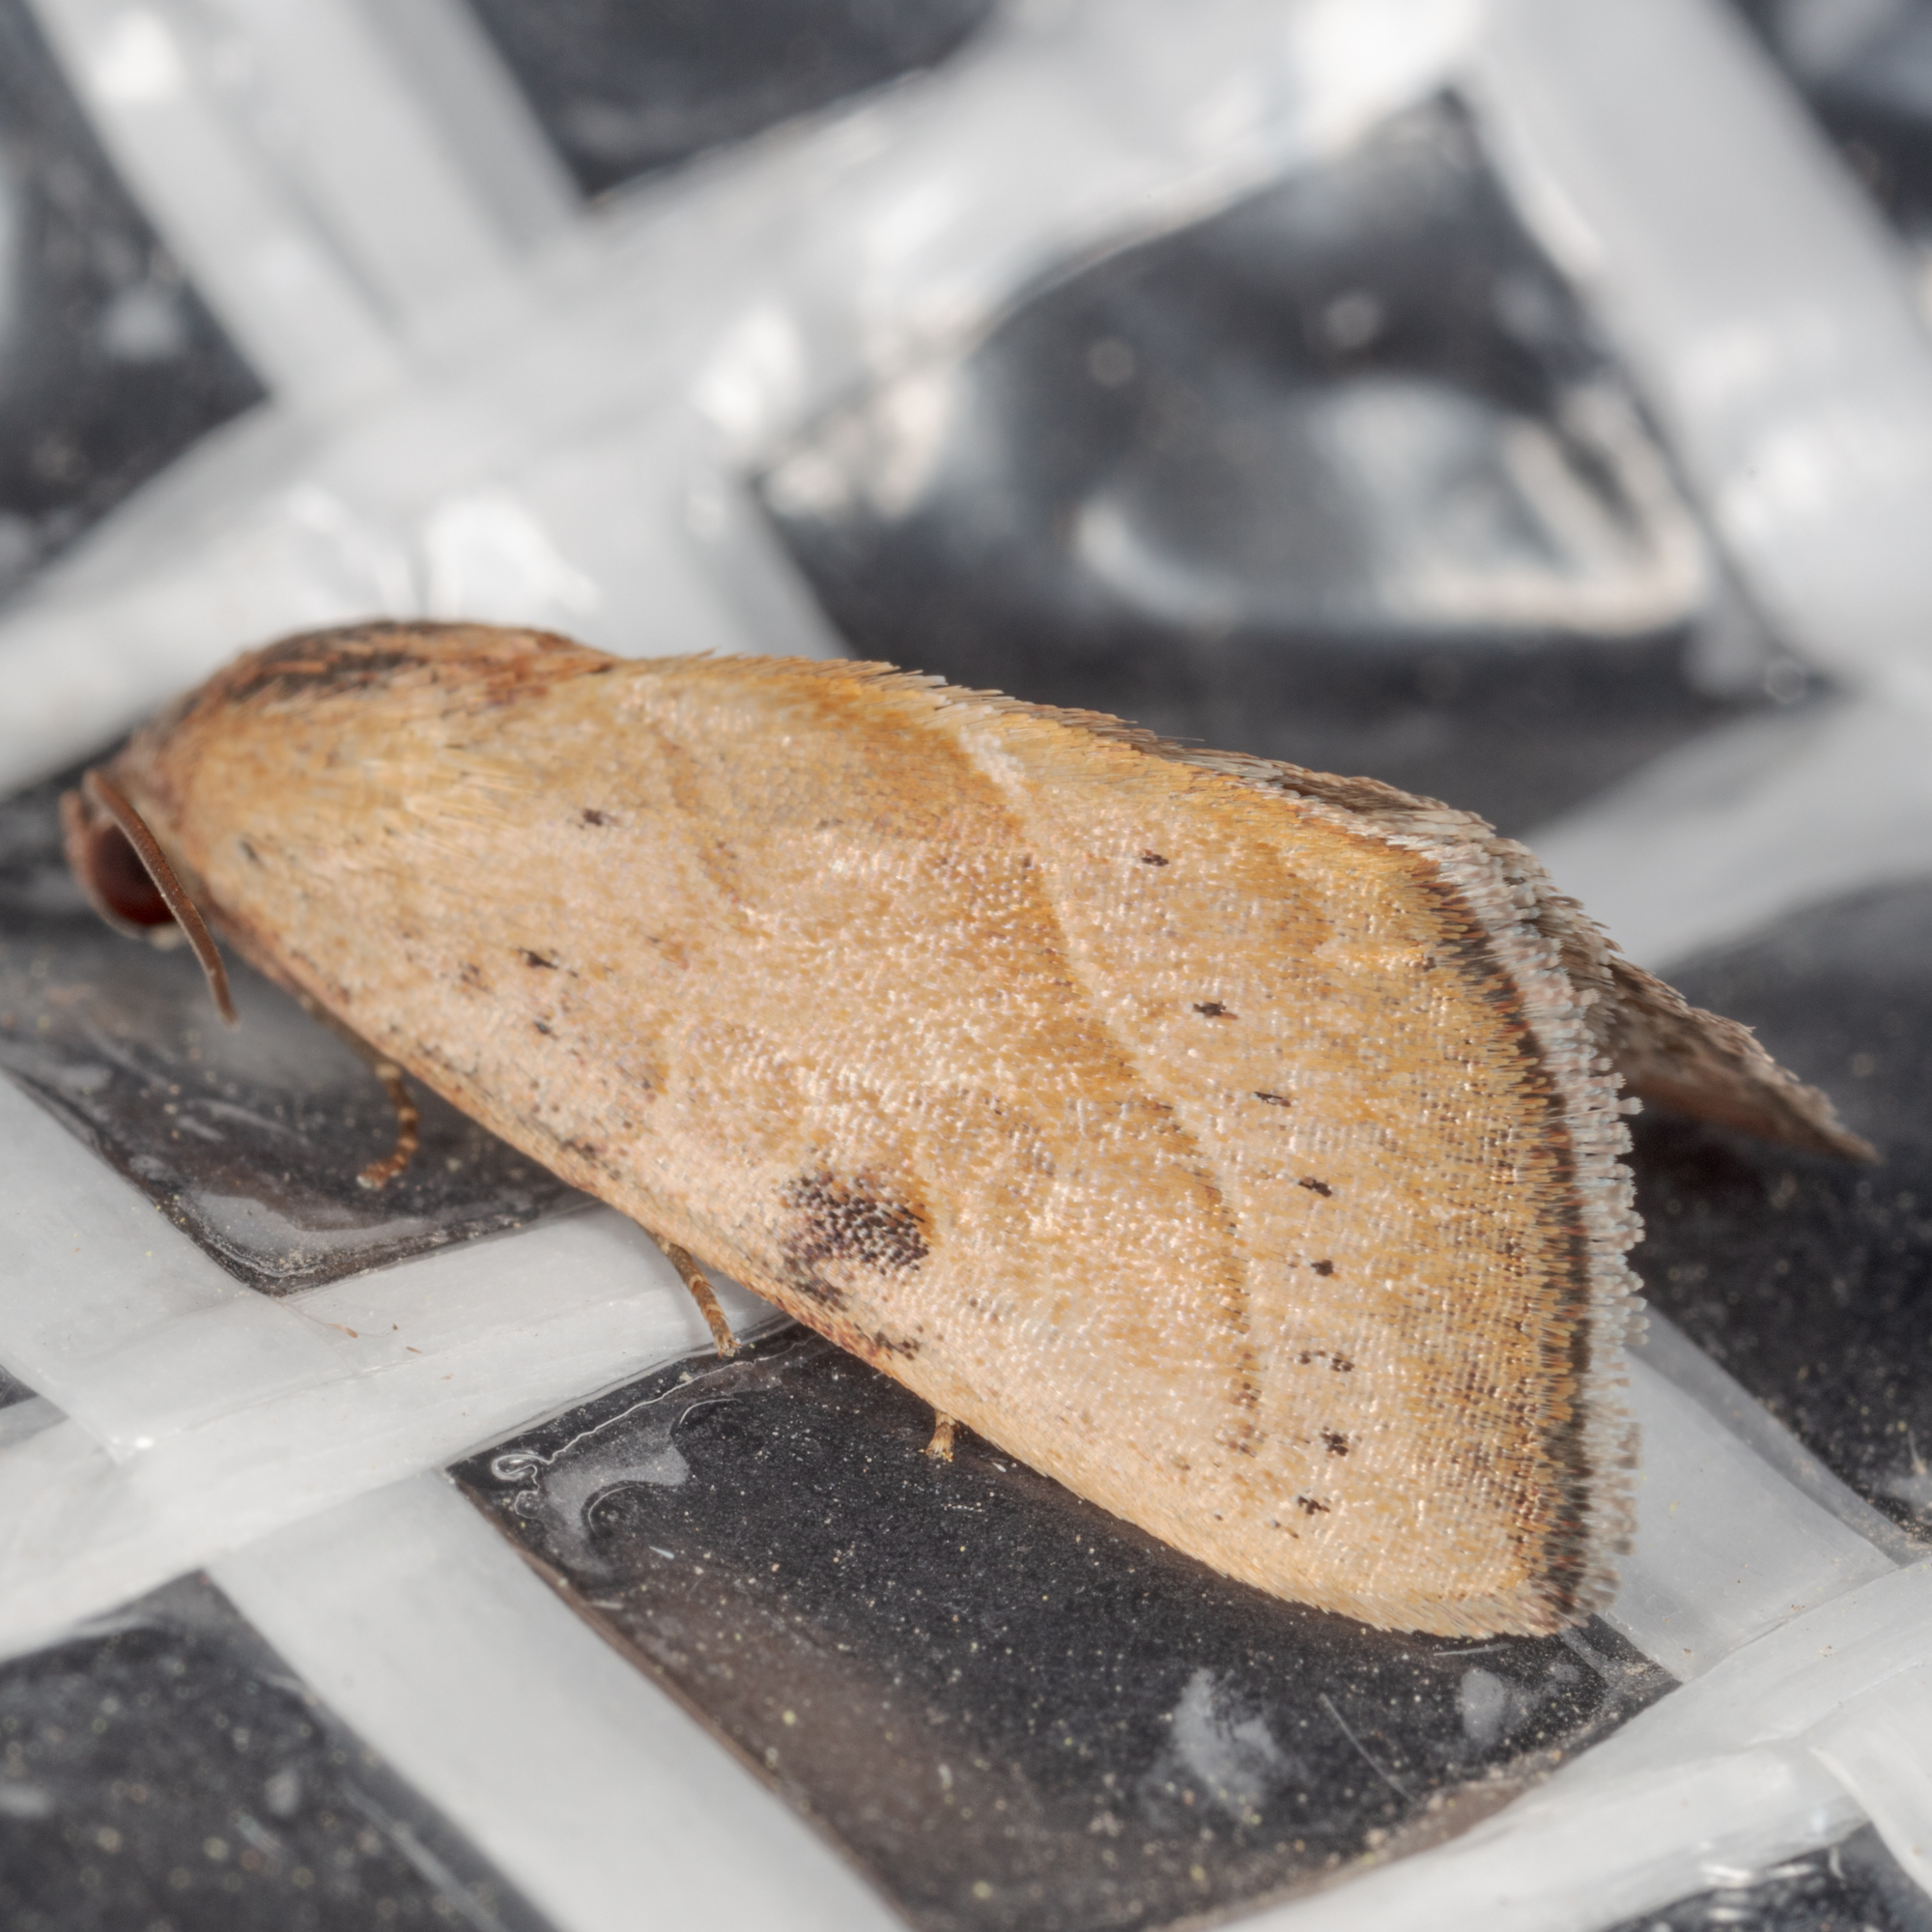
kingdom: Animalia
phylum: Arthropoda
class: Insecta
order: Lepidoptera
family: Noctuidae
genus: Galgula
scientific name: Galgula partita
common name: Wedgeling
